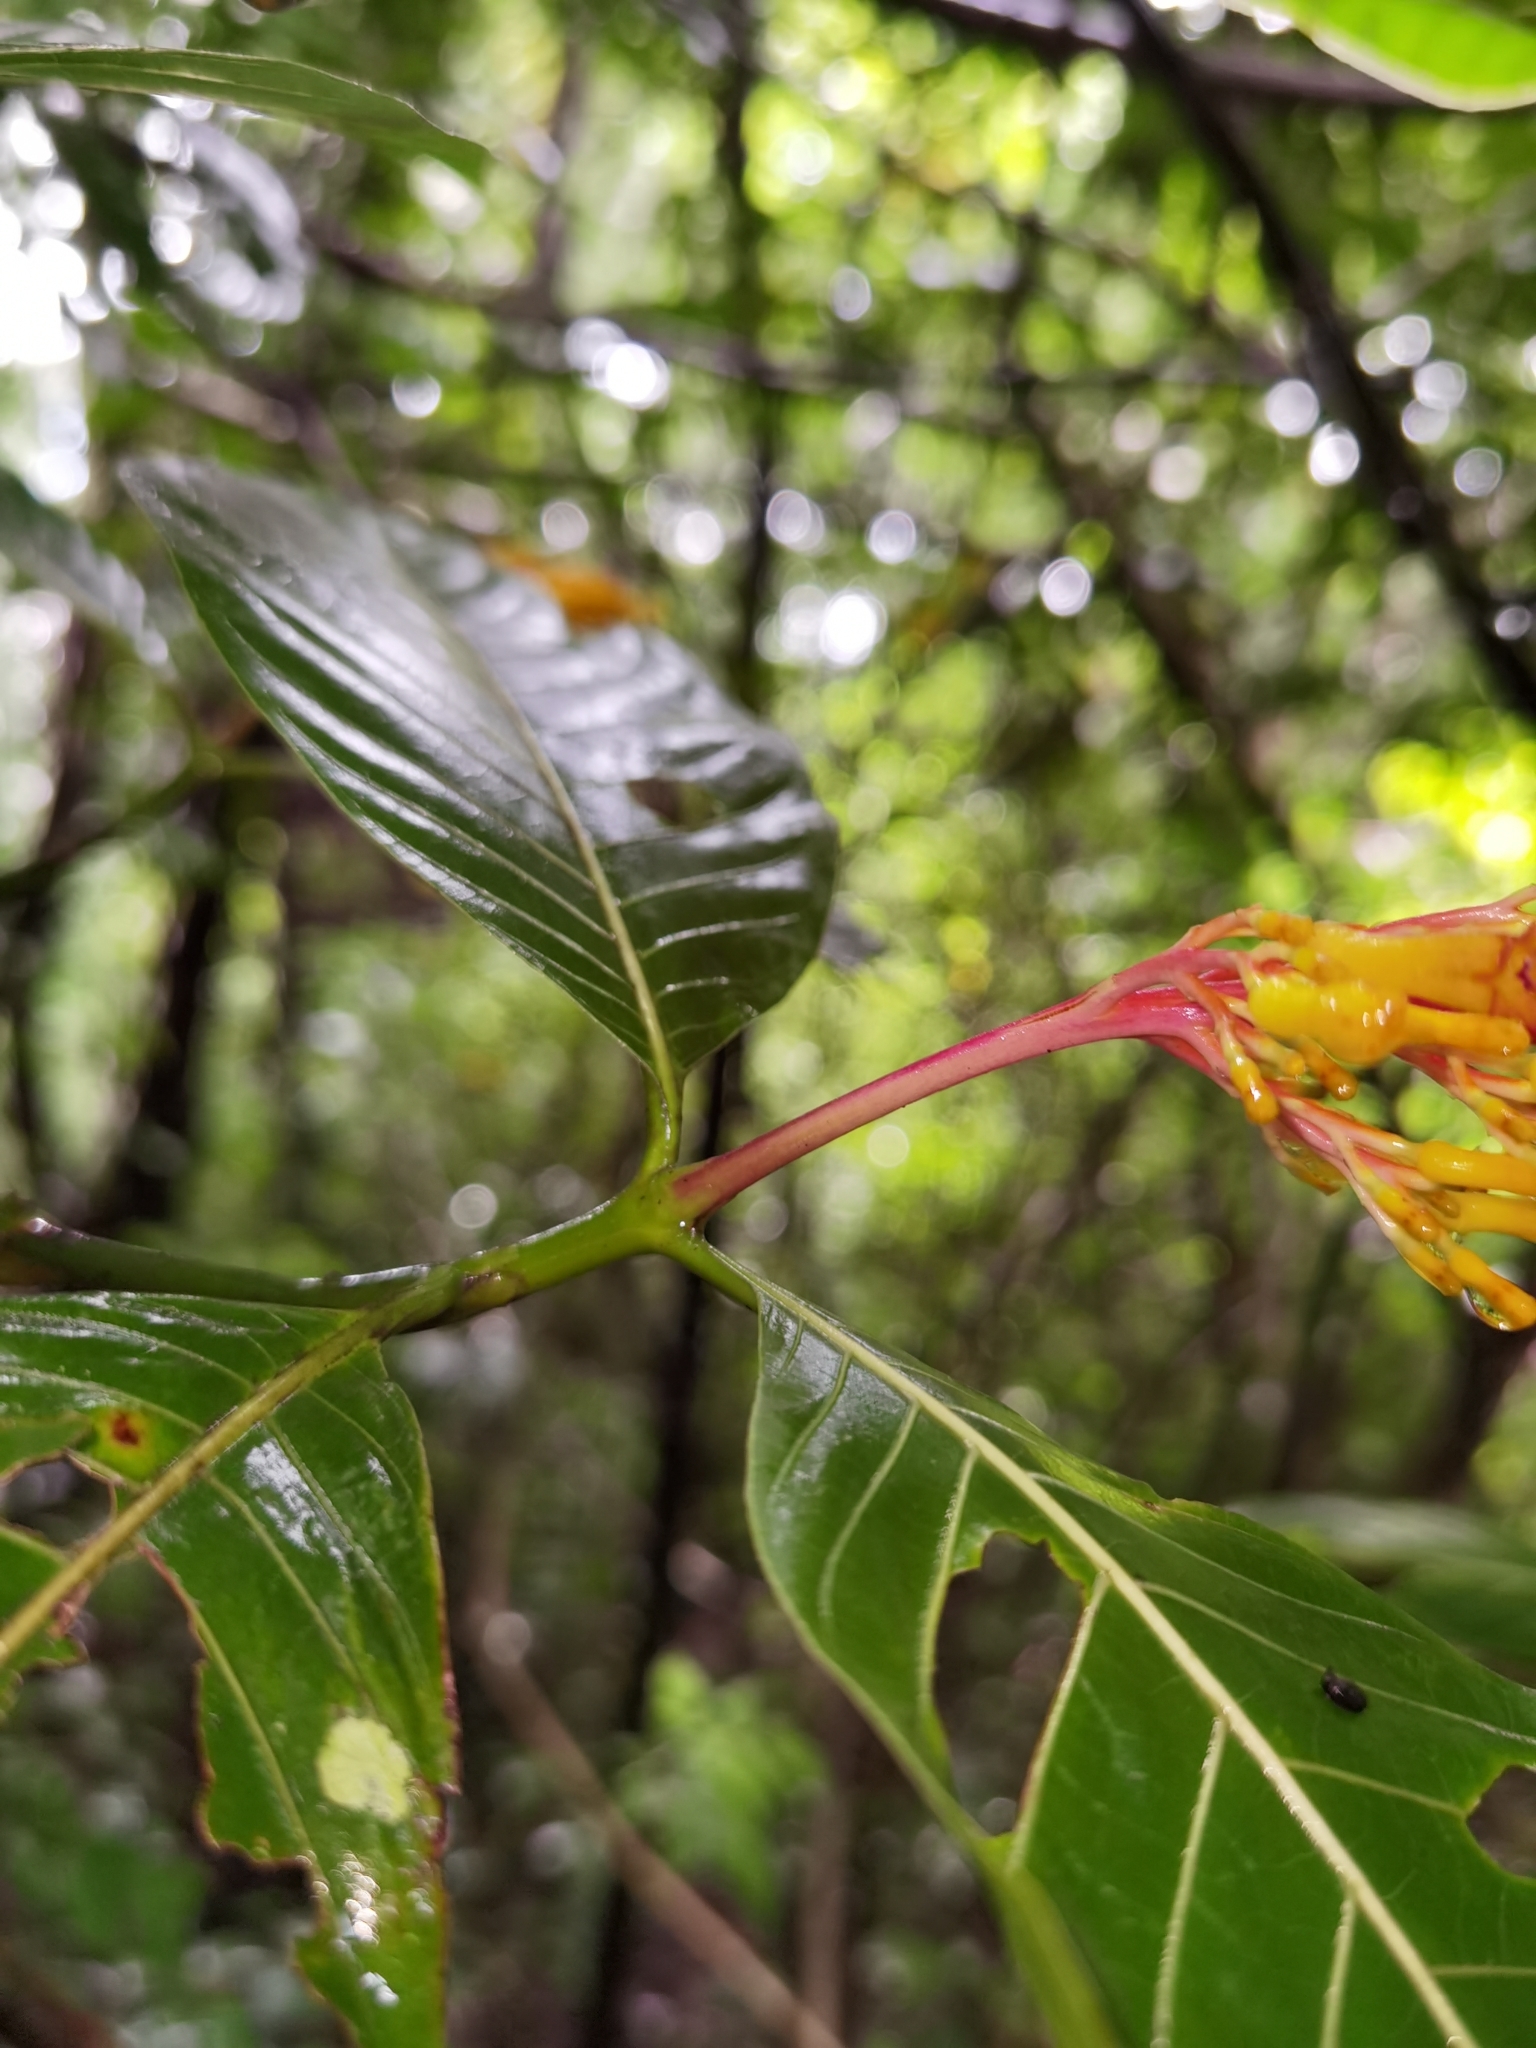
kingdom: Plantae
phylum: Tracheophyta
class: Magnoliopsida
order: Gentianales
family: Rubiaceae
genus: Palicourea
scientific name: Palicourea guianensis
